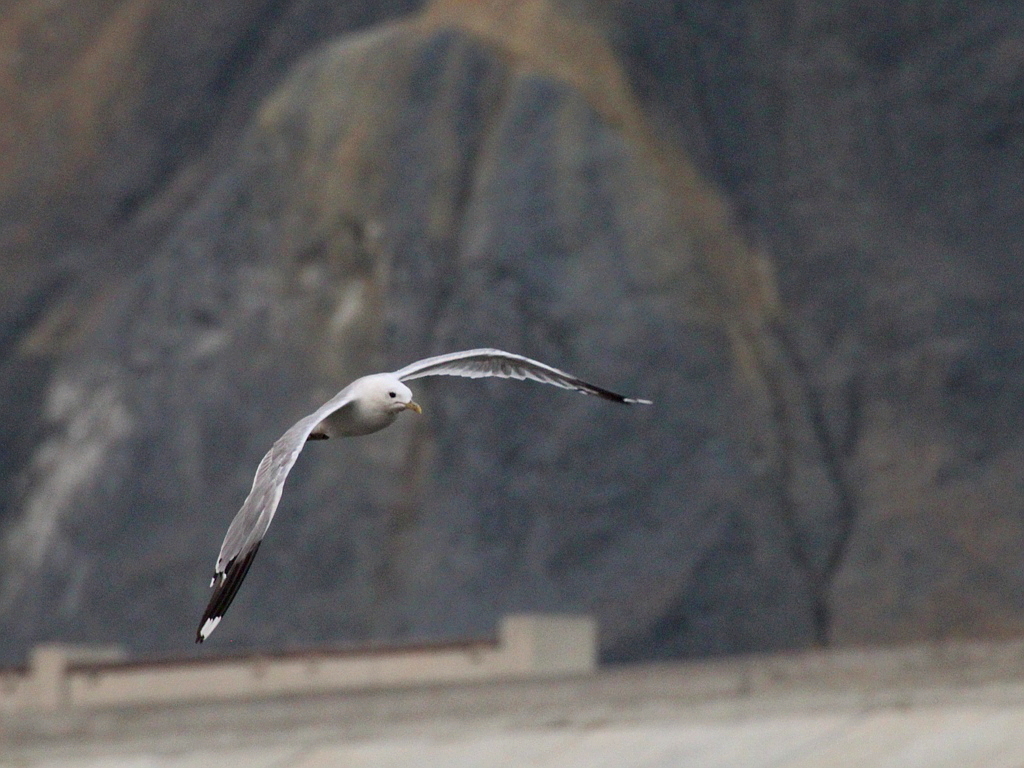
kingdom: Animalia
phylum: Chordata
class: Aves
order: Charadriiformes
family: Laridae
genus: Larus
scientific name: Larus canus
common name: Mew gull
